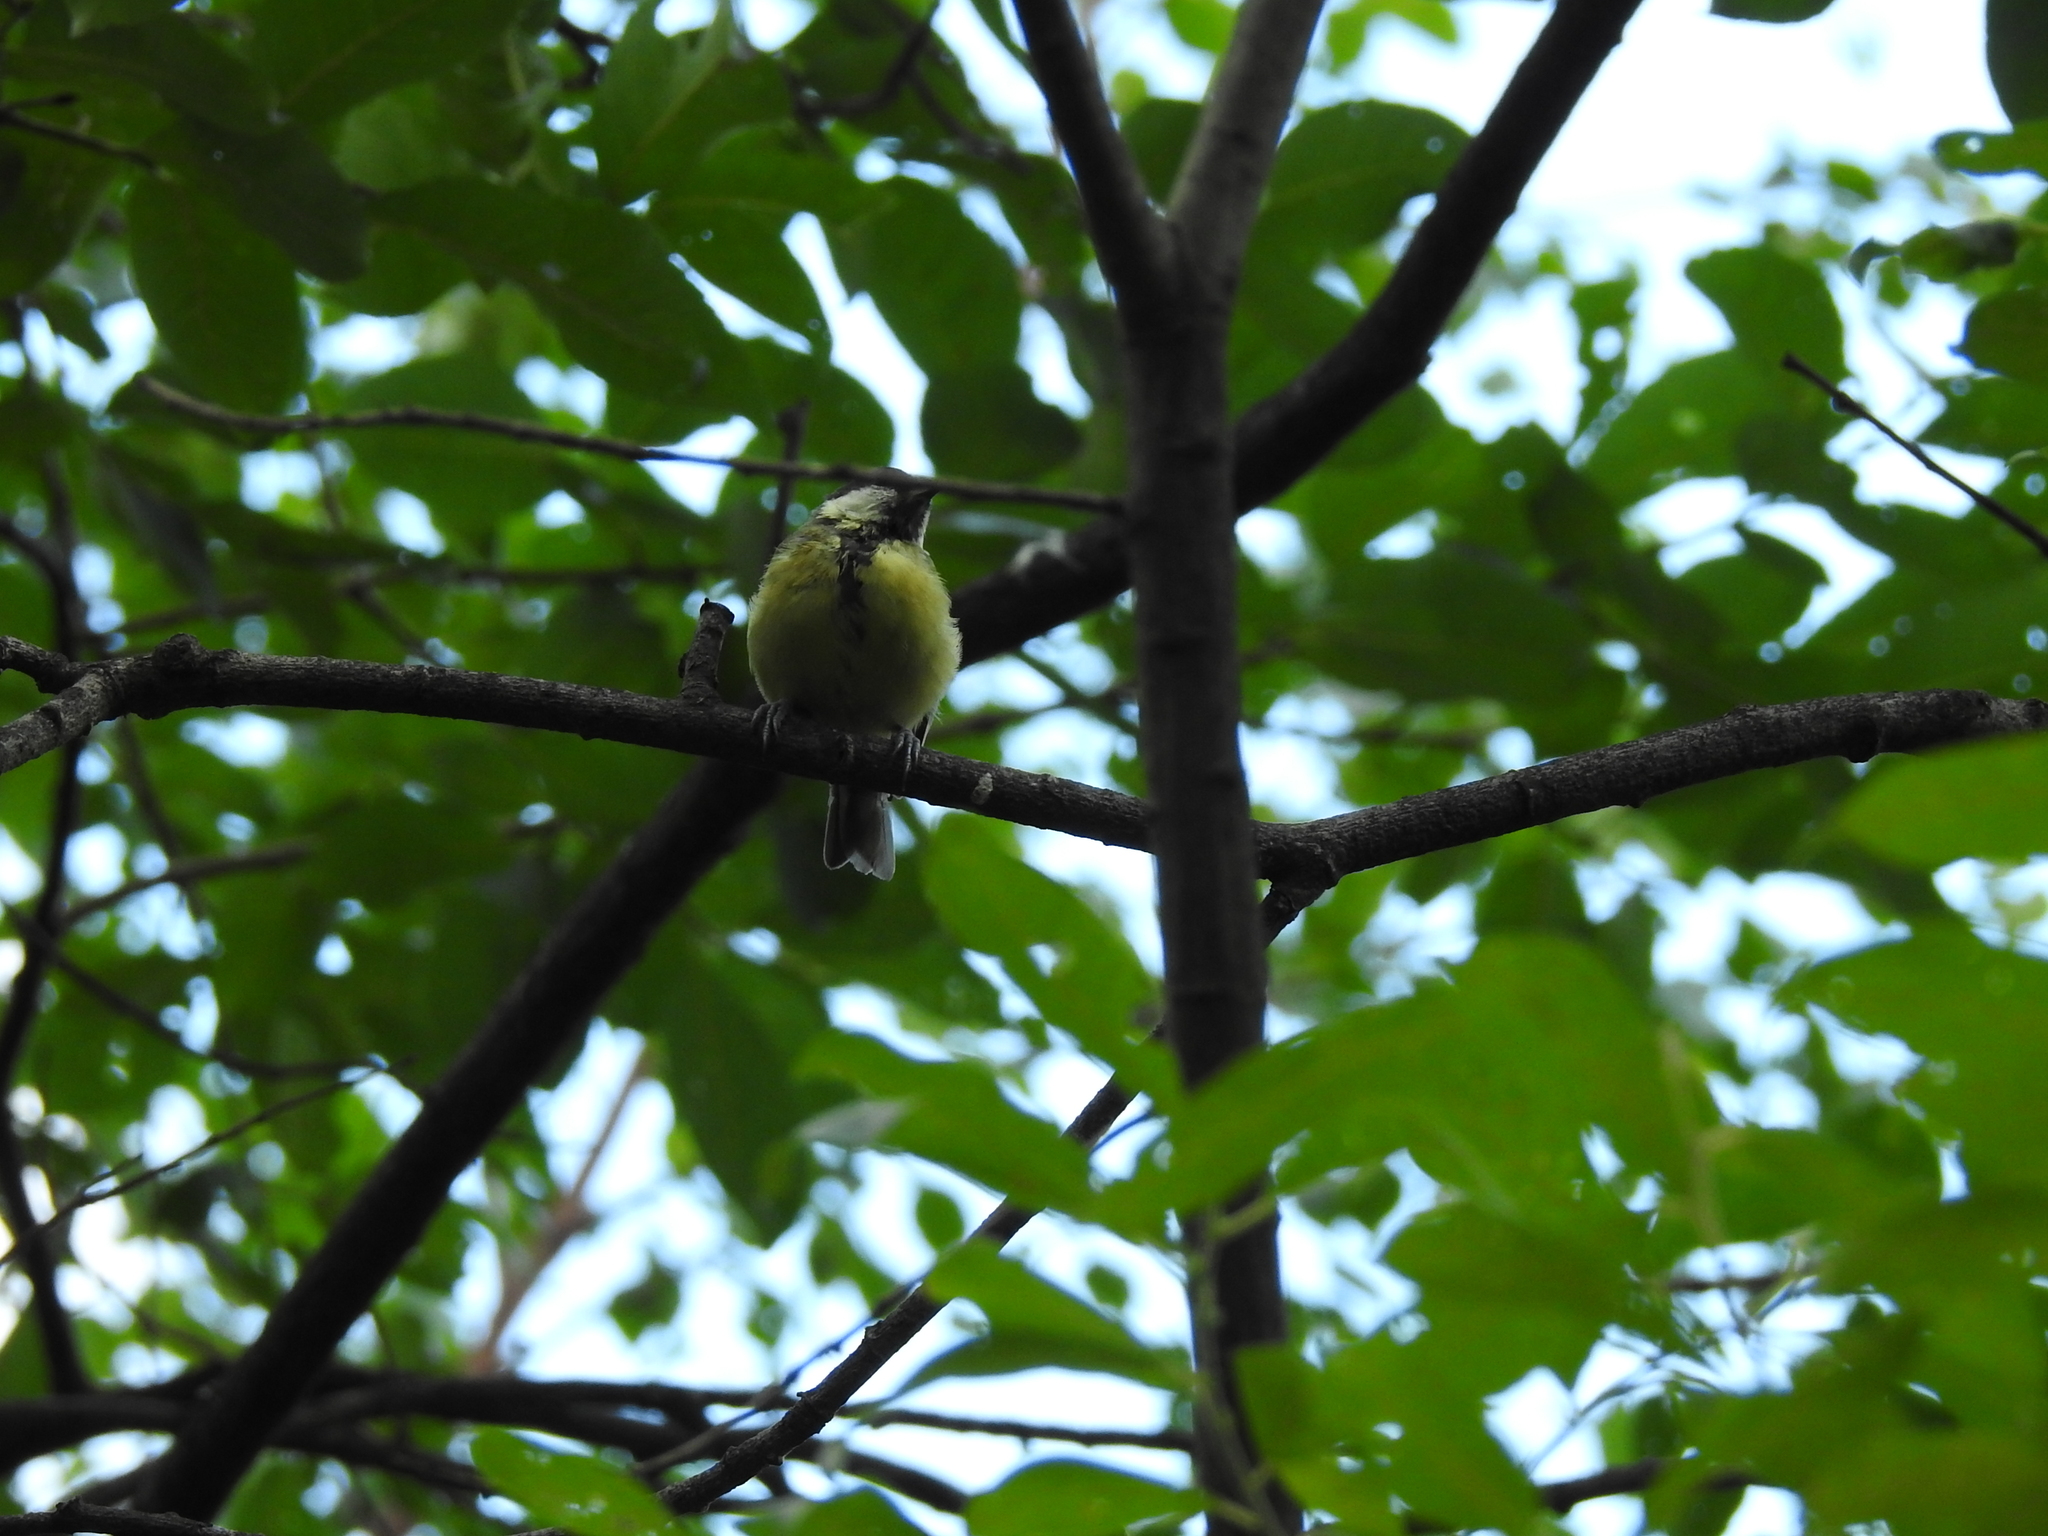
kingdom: Animalia
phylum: Chordata
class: Aves
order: Passeriformes
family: Paridae
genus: Parus
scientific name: Parus major
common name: Great tit
